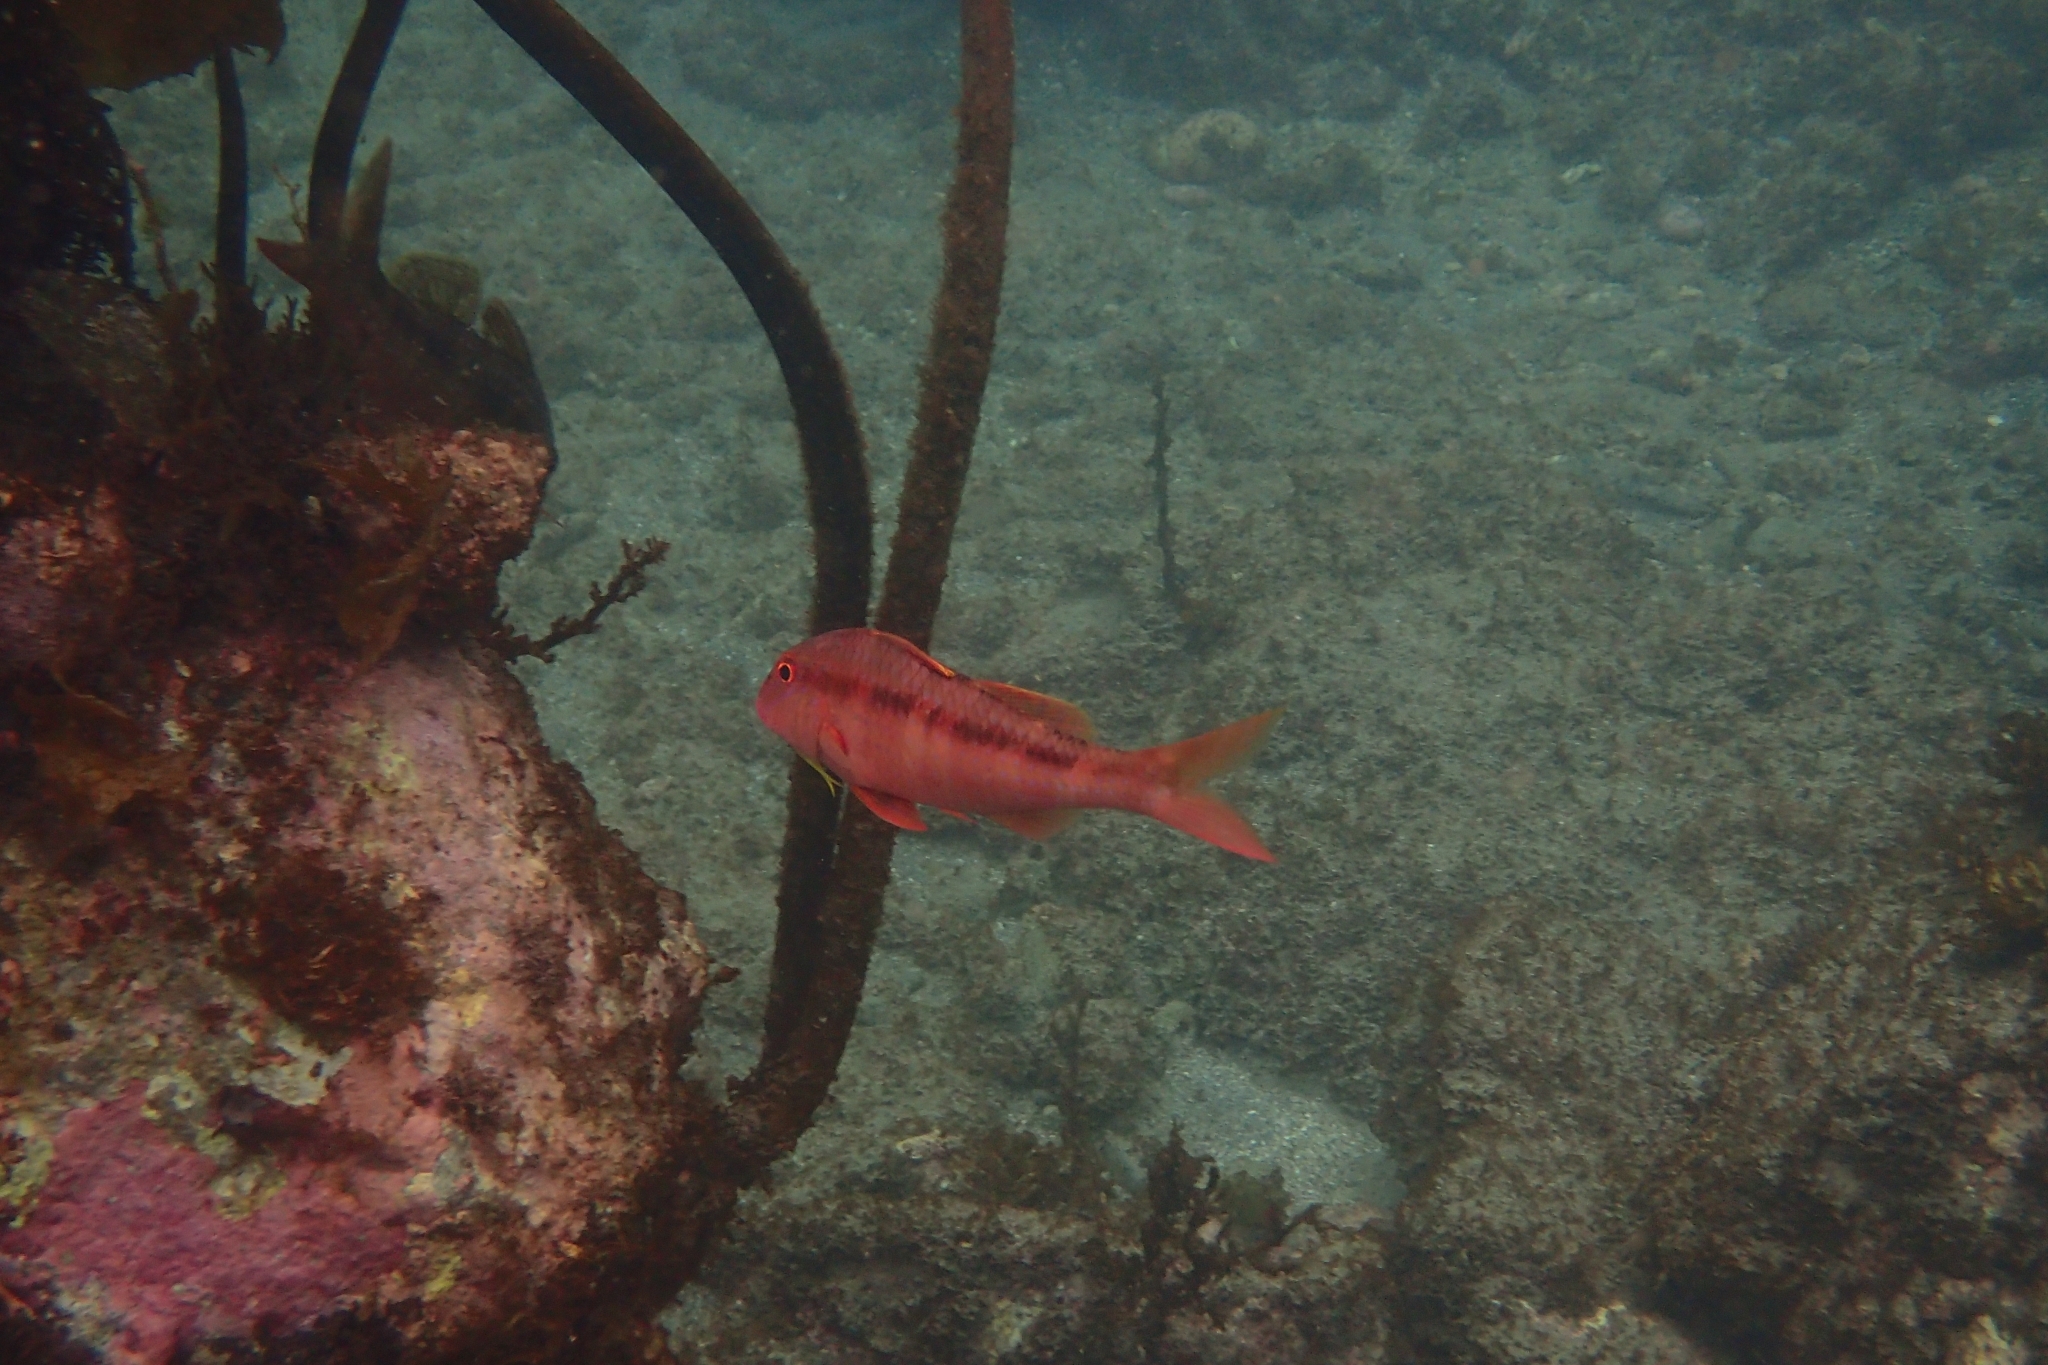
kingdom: Animalia
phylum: Chordata
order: Perciformes
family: Mullidae
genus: Upeneichthys
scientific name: Upeneichthys lineatus
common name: Red mullet
